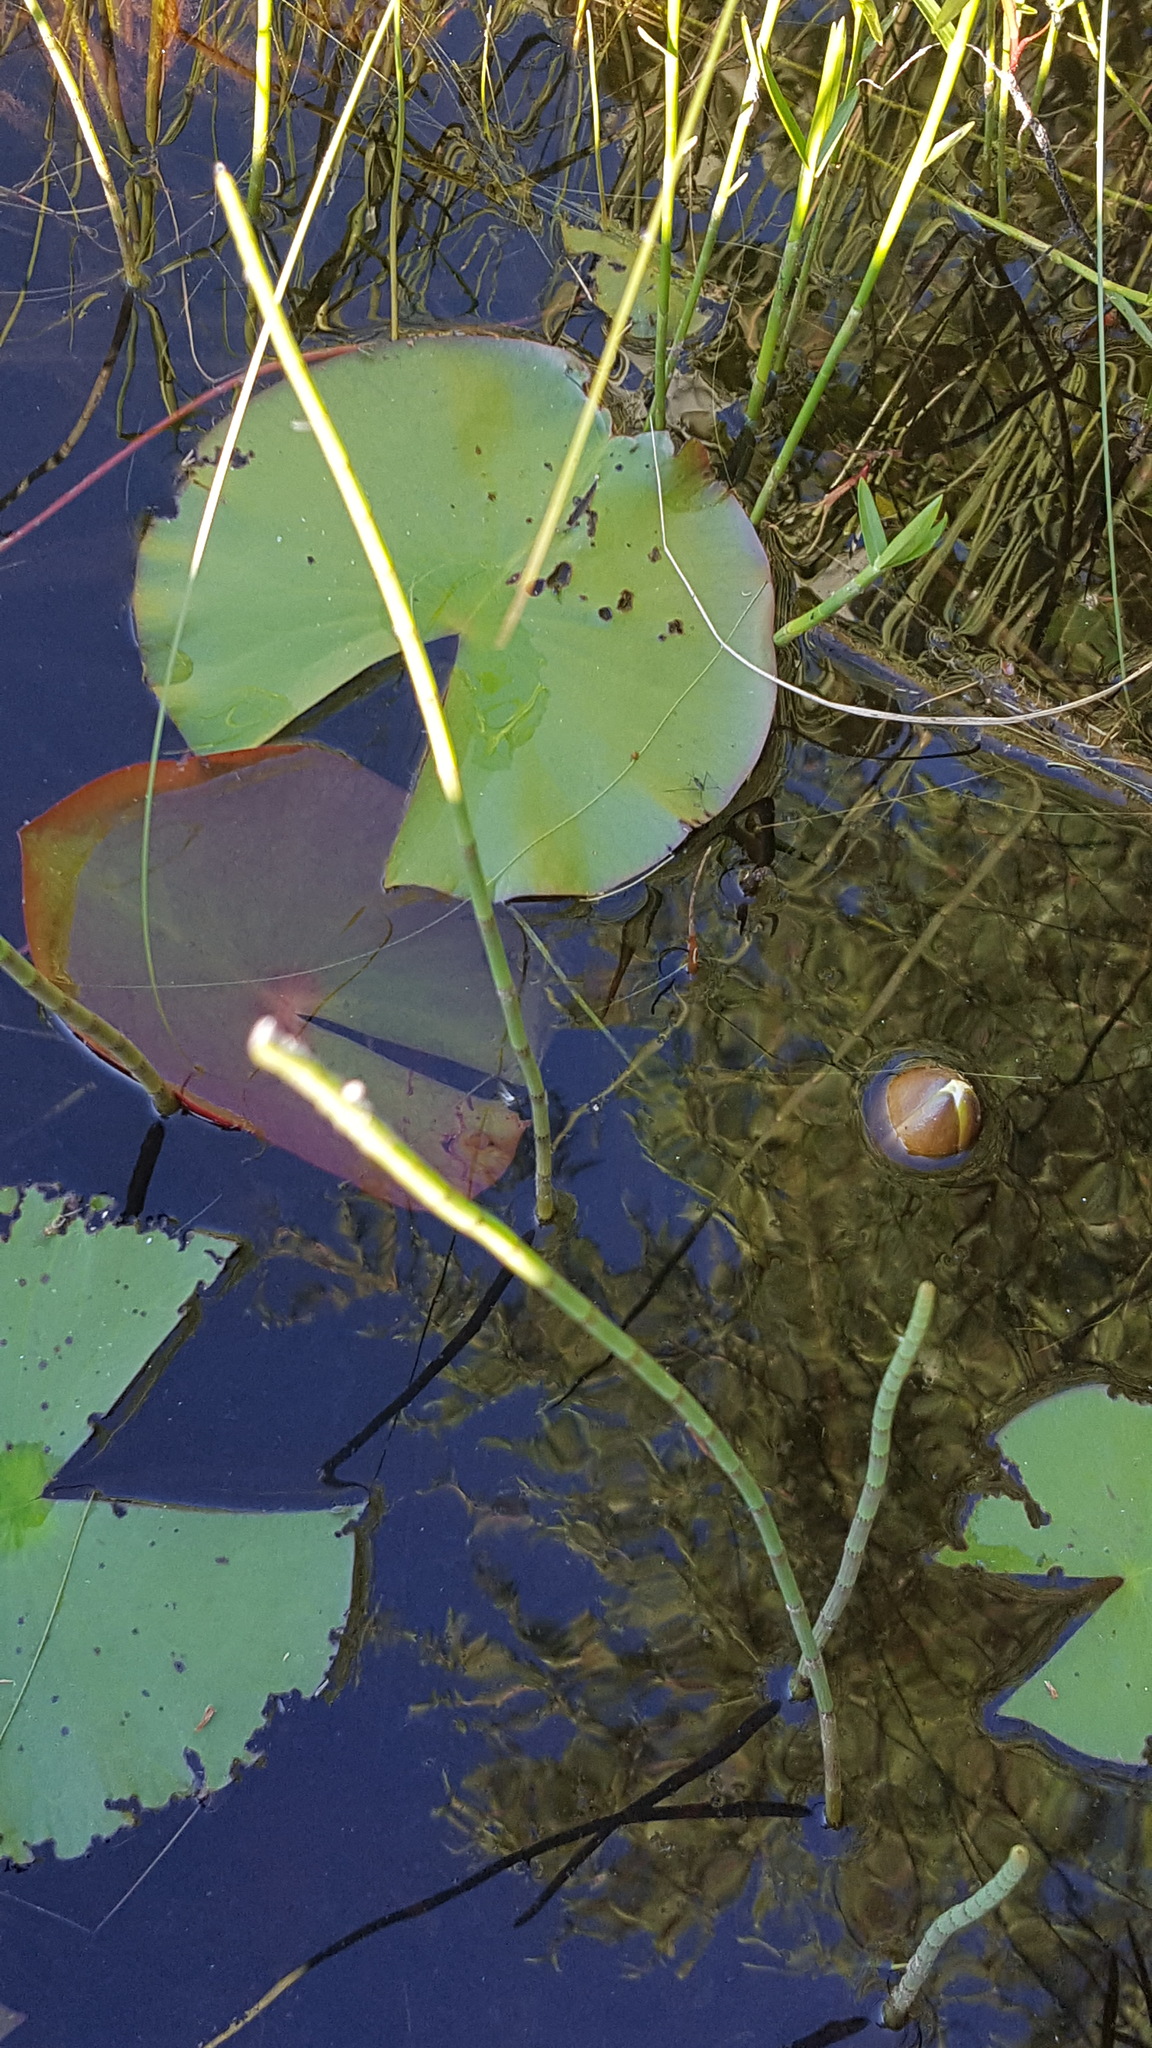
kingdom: Plantae
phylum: Tracheophyta
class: Magnoliopsida
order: Nymphaeales
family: Nymphaeaceae
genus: Nymphaea
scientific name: Nymphaea odorata
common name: Fragrant water-lily
